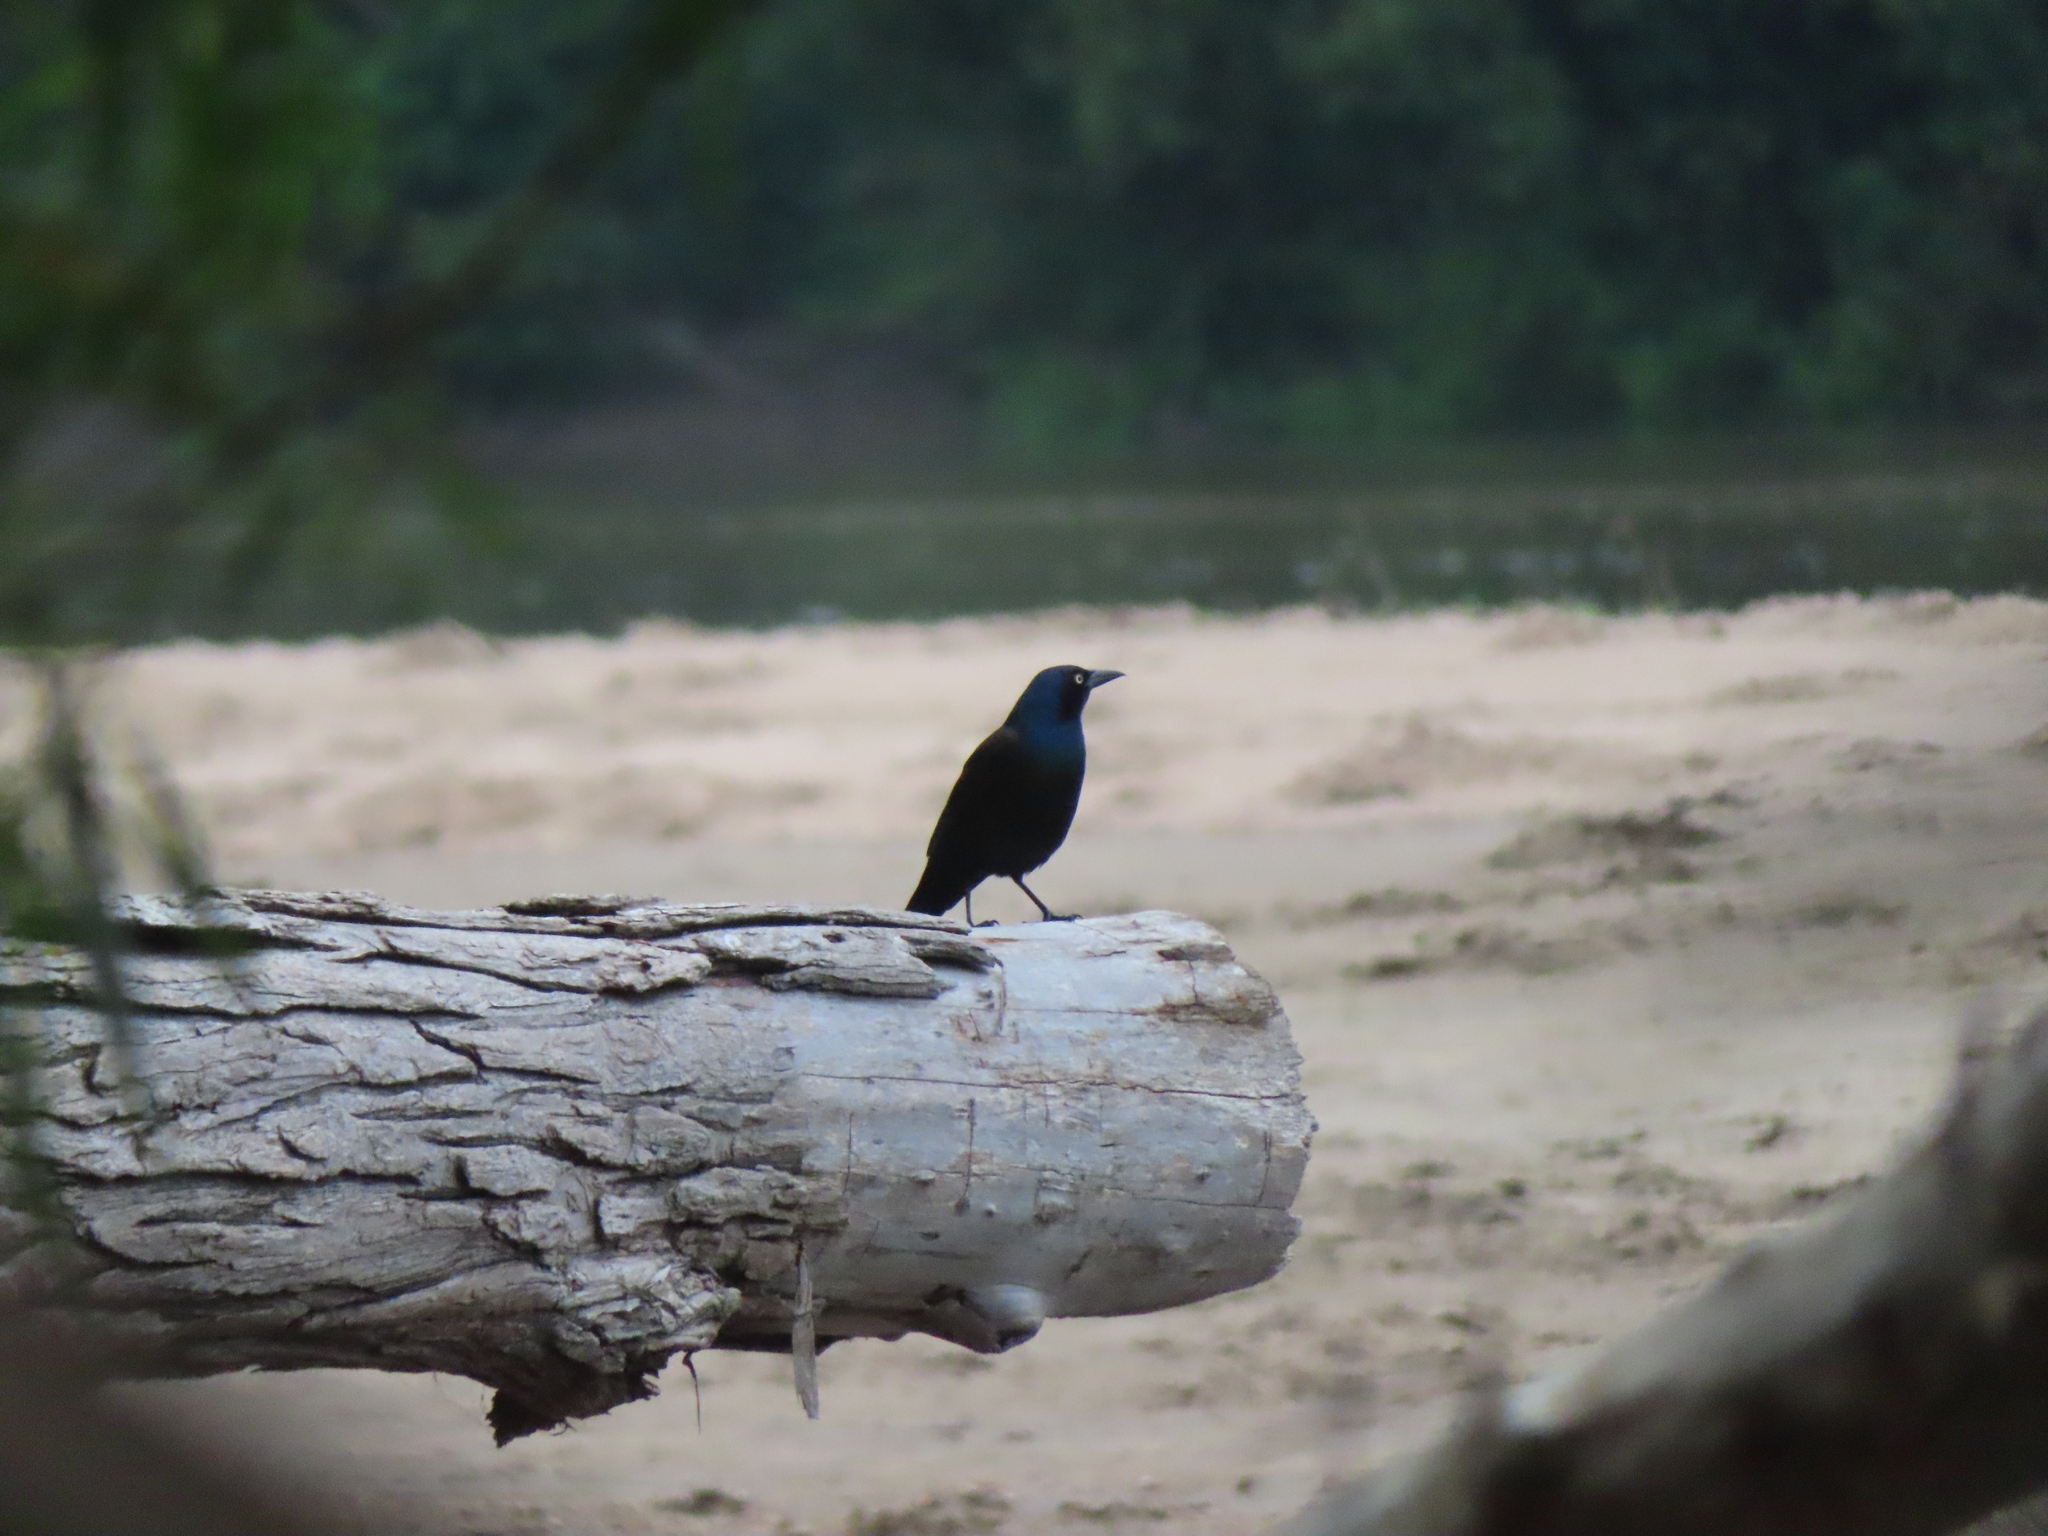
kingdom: Animalia
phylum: Chordata
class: Aves
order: Passeriformes
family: Icteridae
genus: Quiscalus
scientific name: Quiscalus quiscula
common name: Common grackle
